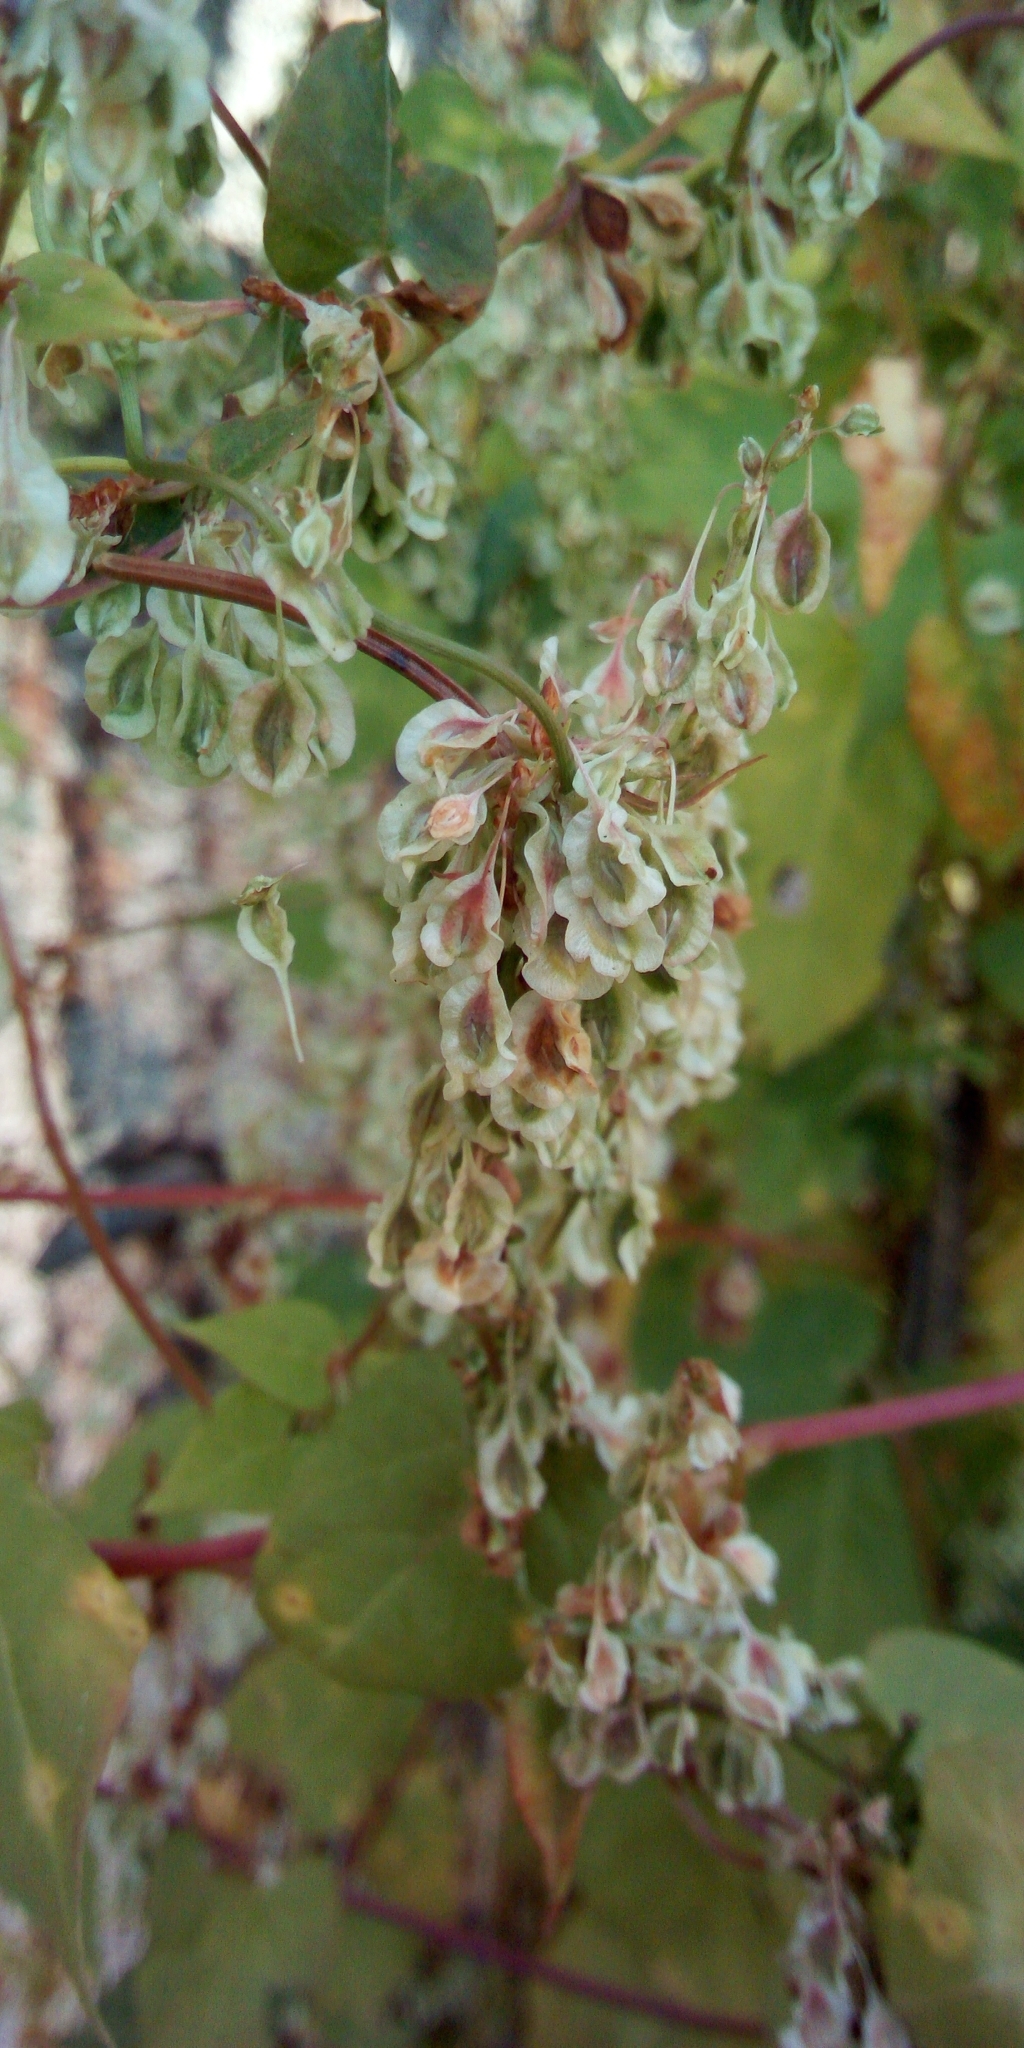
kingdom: Plantae
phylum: Tracheophyta
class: Magnoliopsida
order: Caryophyllales
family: Polygonaceae
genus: Fallopia
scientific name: Fallopia dumetorum
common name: Copse-bindweed
